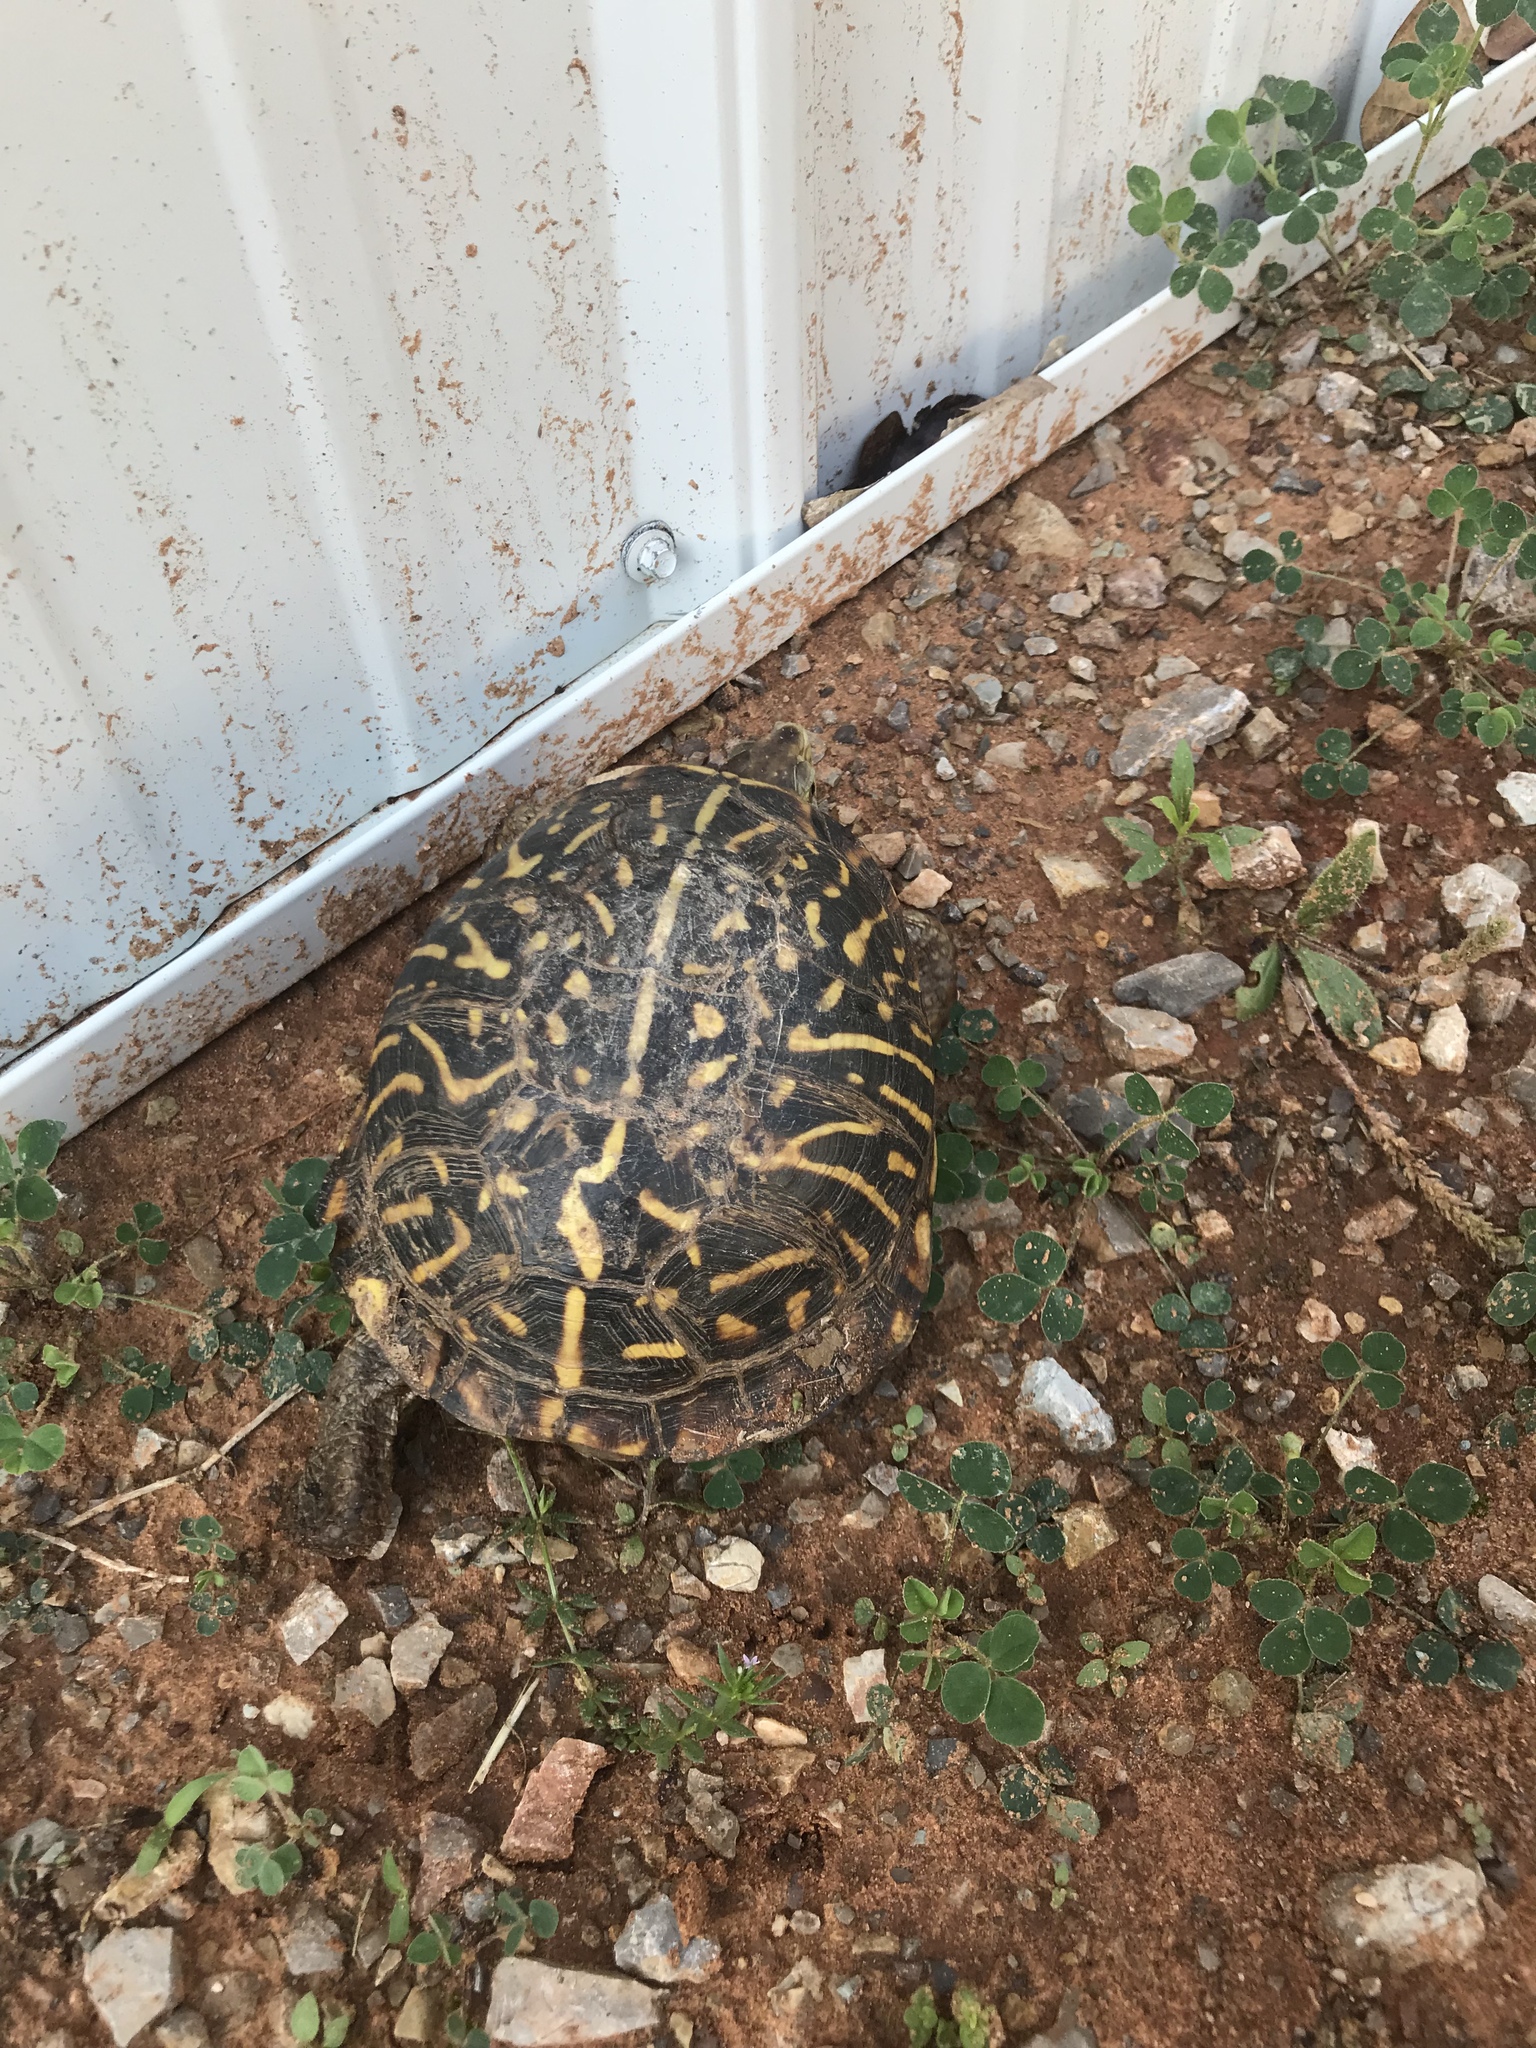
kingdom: Animalia
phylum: Chordata
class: Testudines
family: Emydidae
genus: Terrapene
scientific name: Terrapene ornata
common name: Western box turtle
